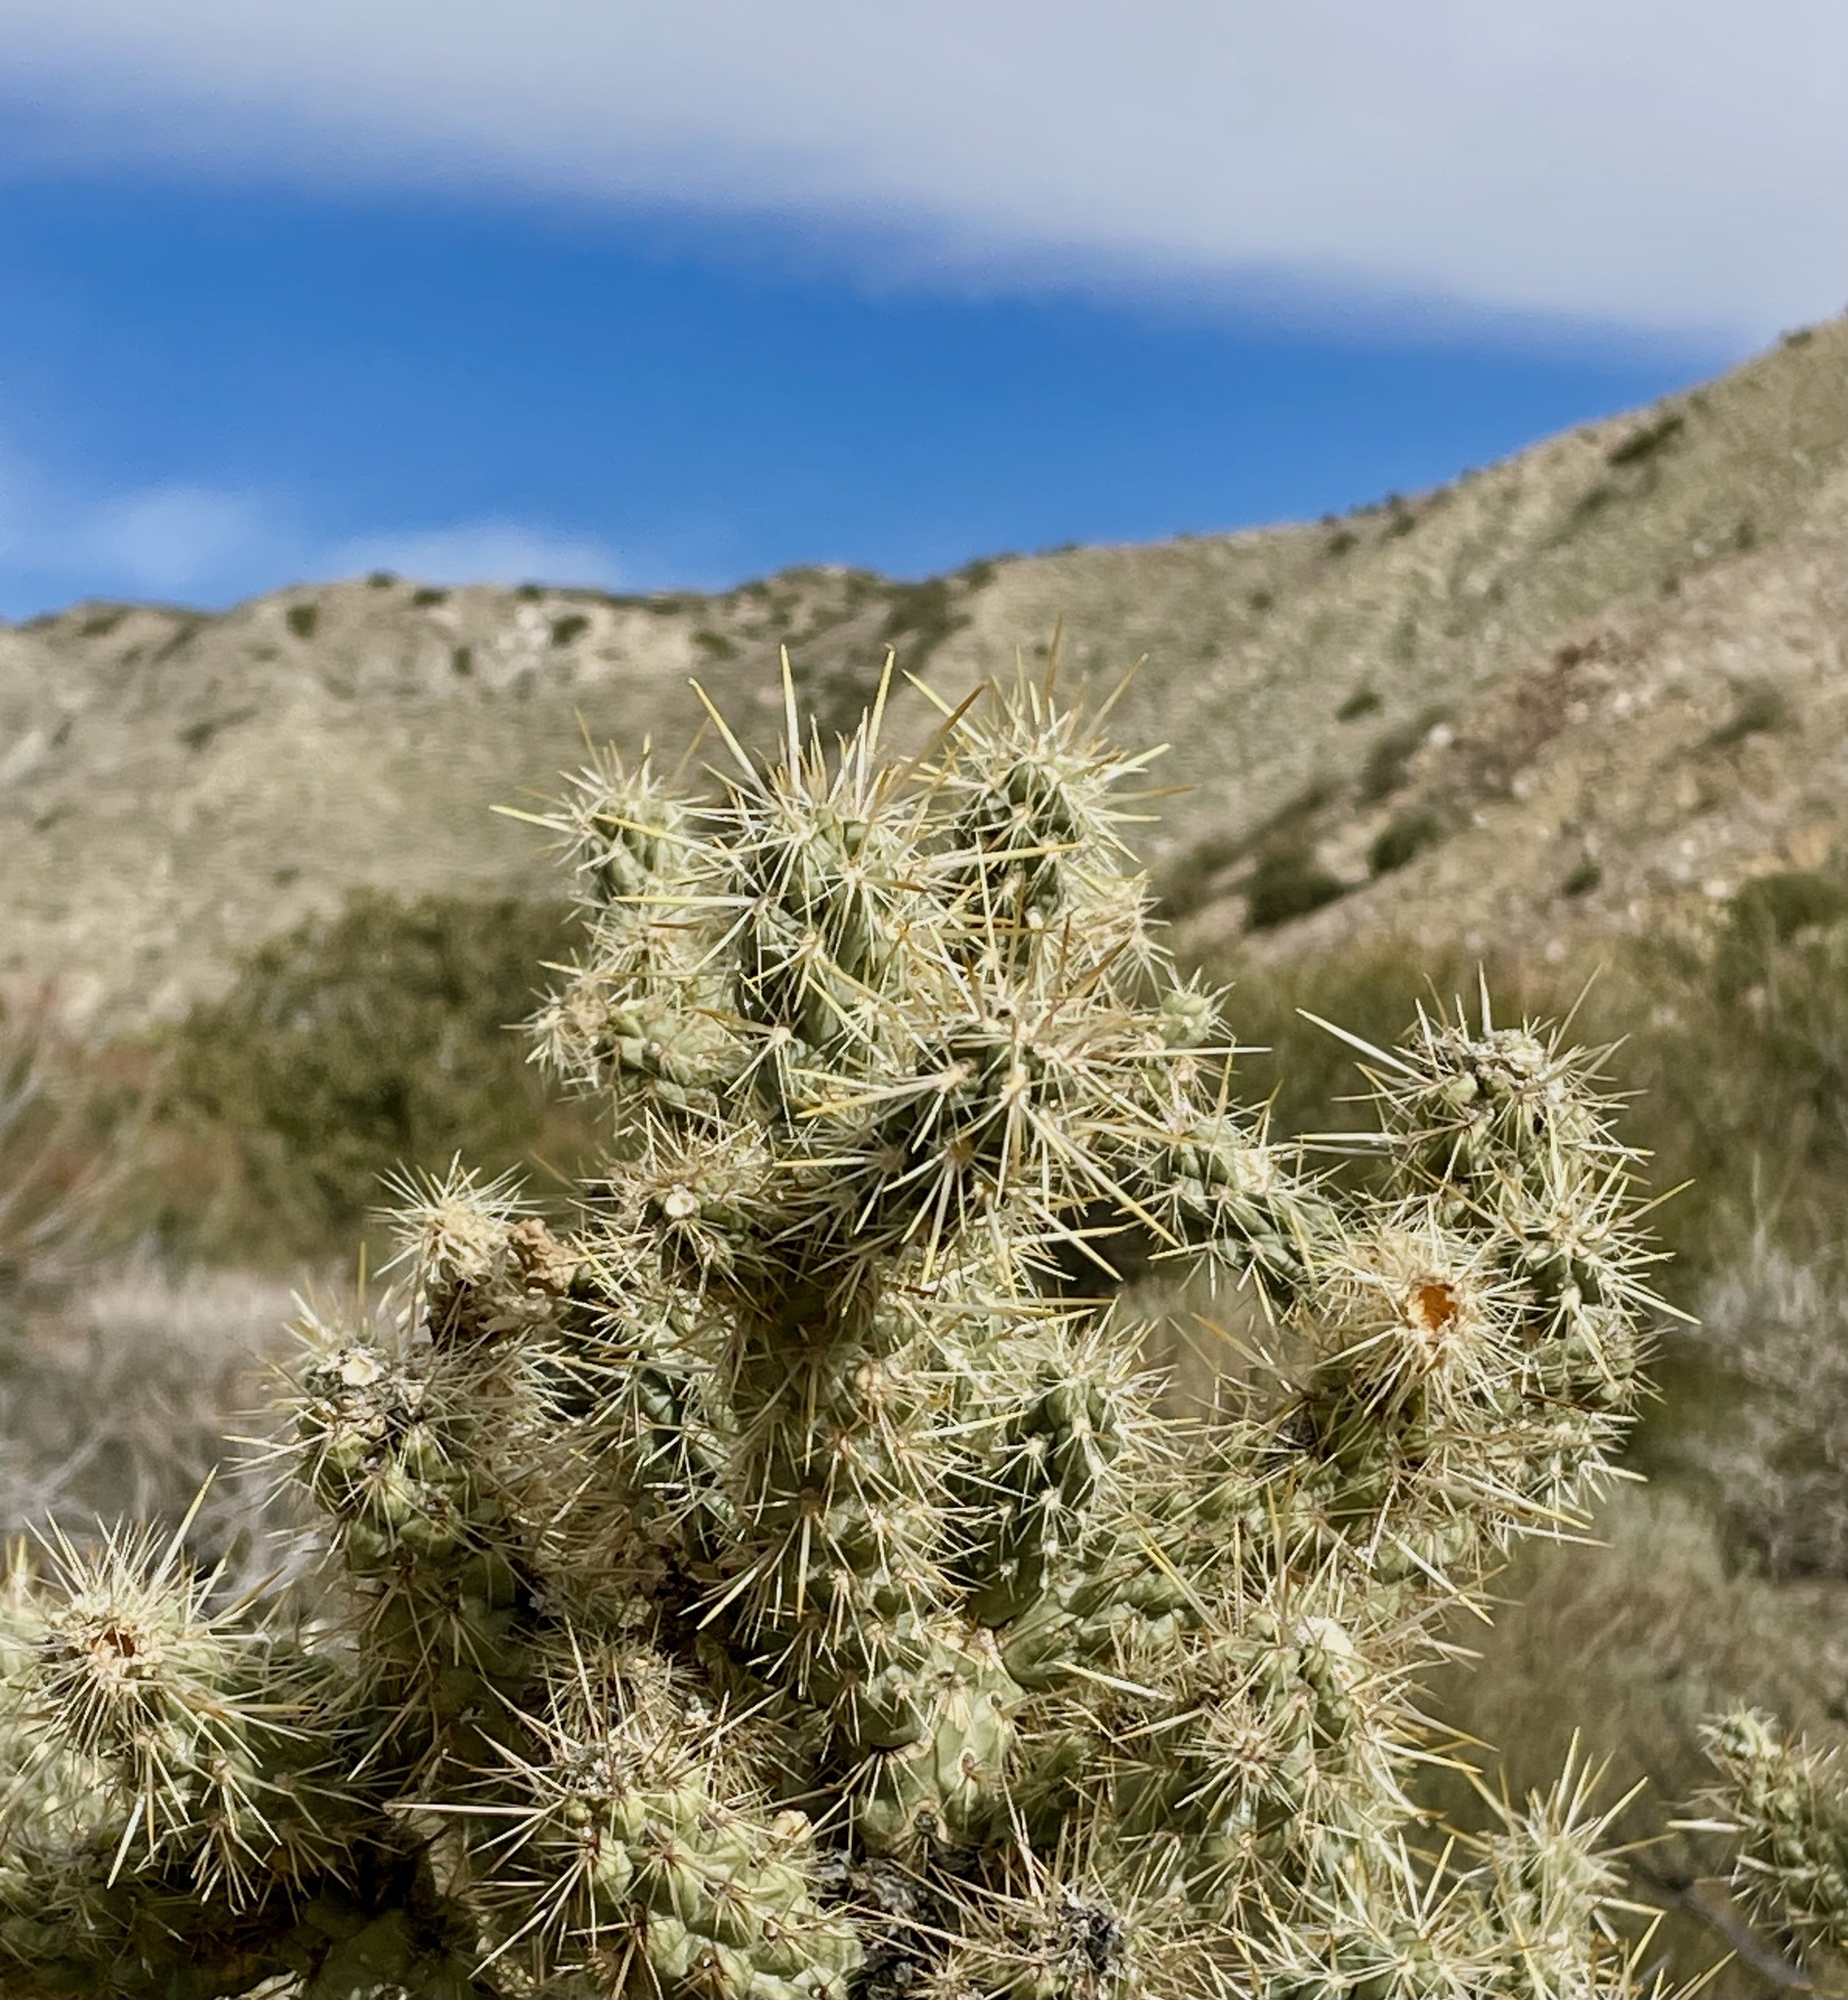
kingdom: Plantae
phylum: Tracheophyta
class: Magnoliopsida
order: Caryophyllales
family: Cactaceae
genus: Cylindropuntia
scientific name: Cylindropuntia echinocarpa
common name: Ground cholla
